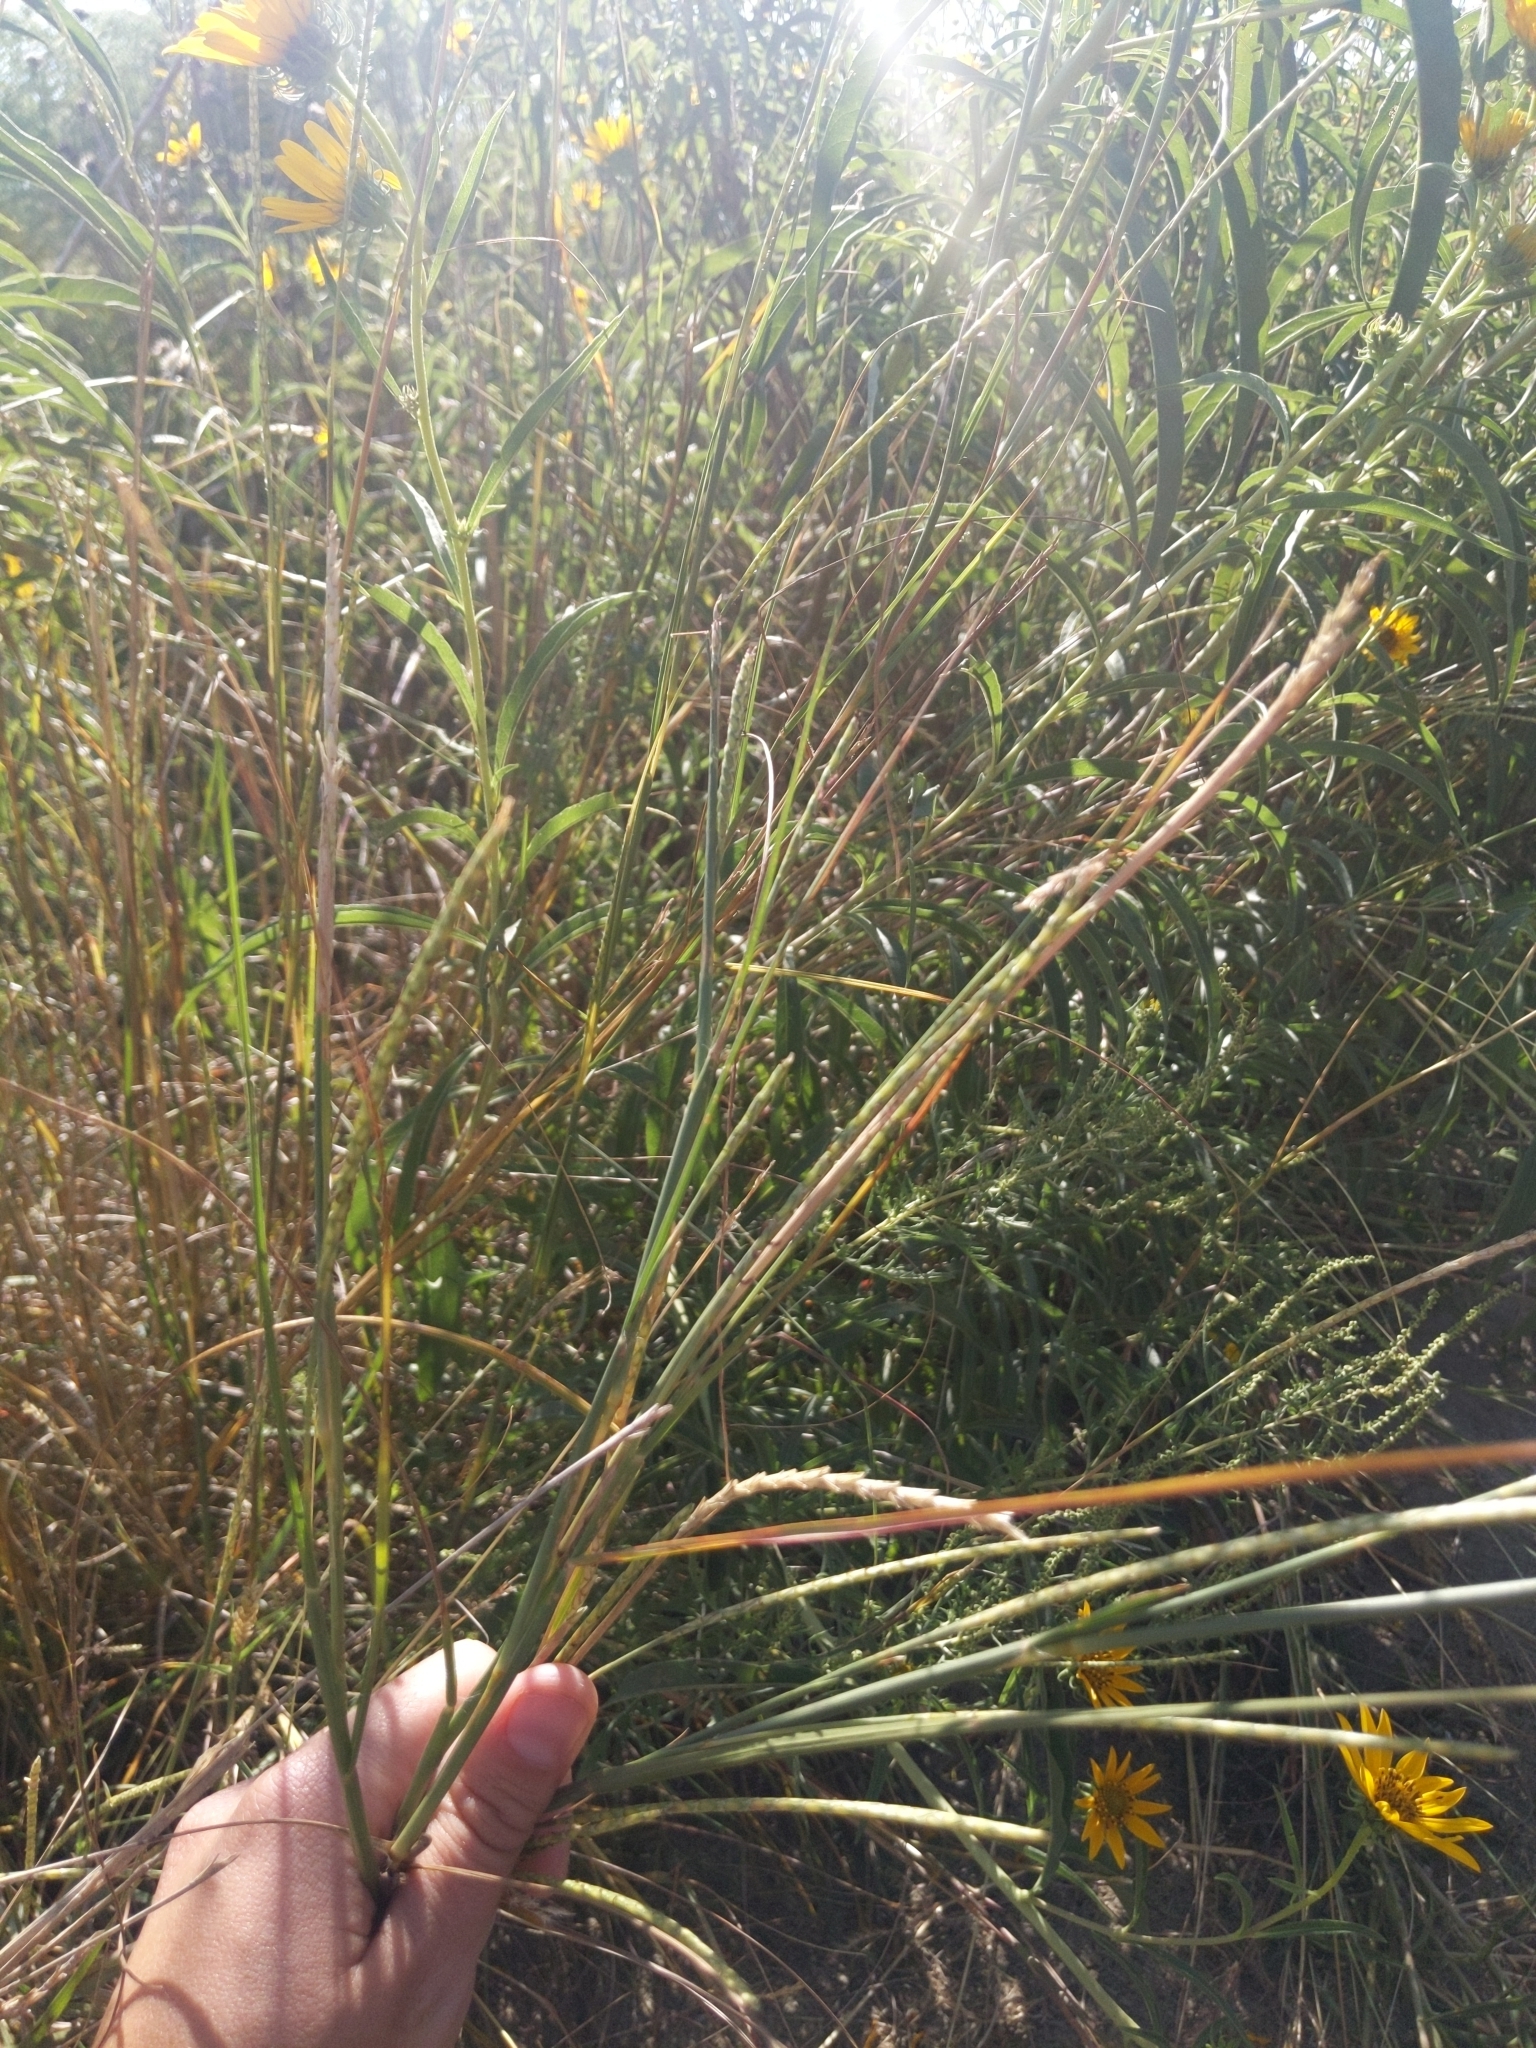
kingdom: Plantae
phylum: Tracheophyta
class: Liliopsida
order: Poales
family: Poaceae
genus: Elionurus
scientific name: Elionurus tripsacoides
